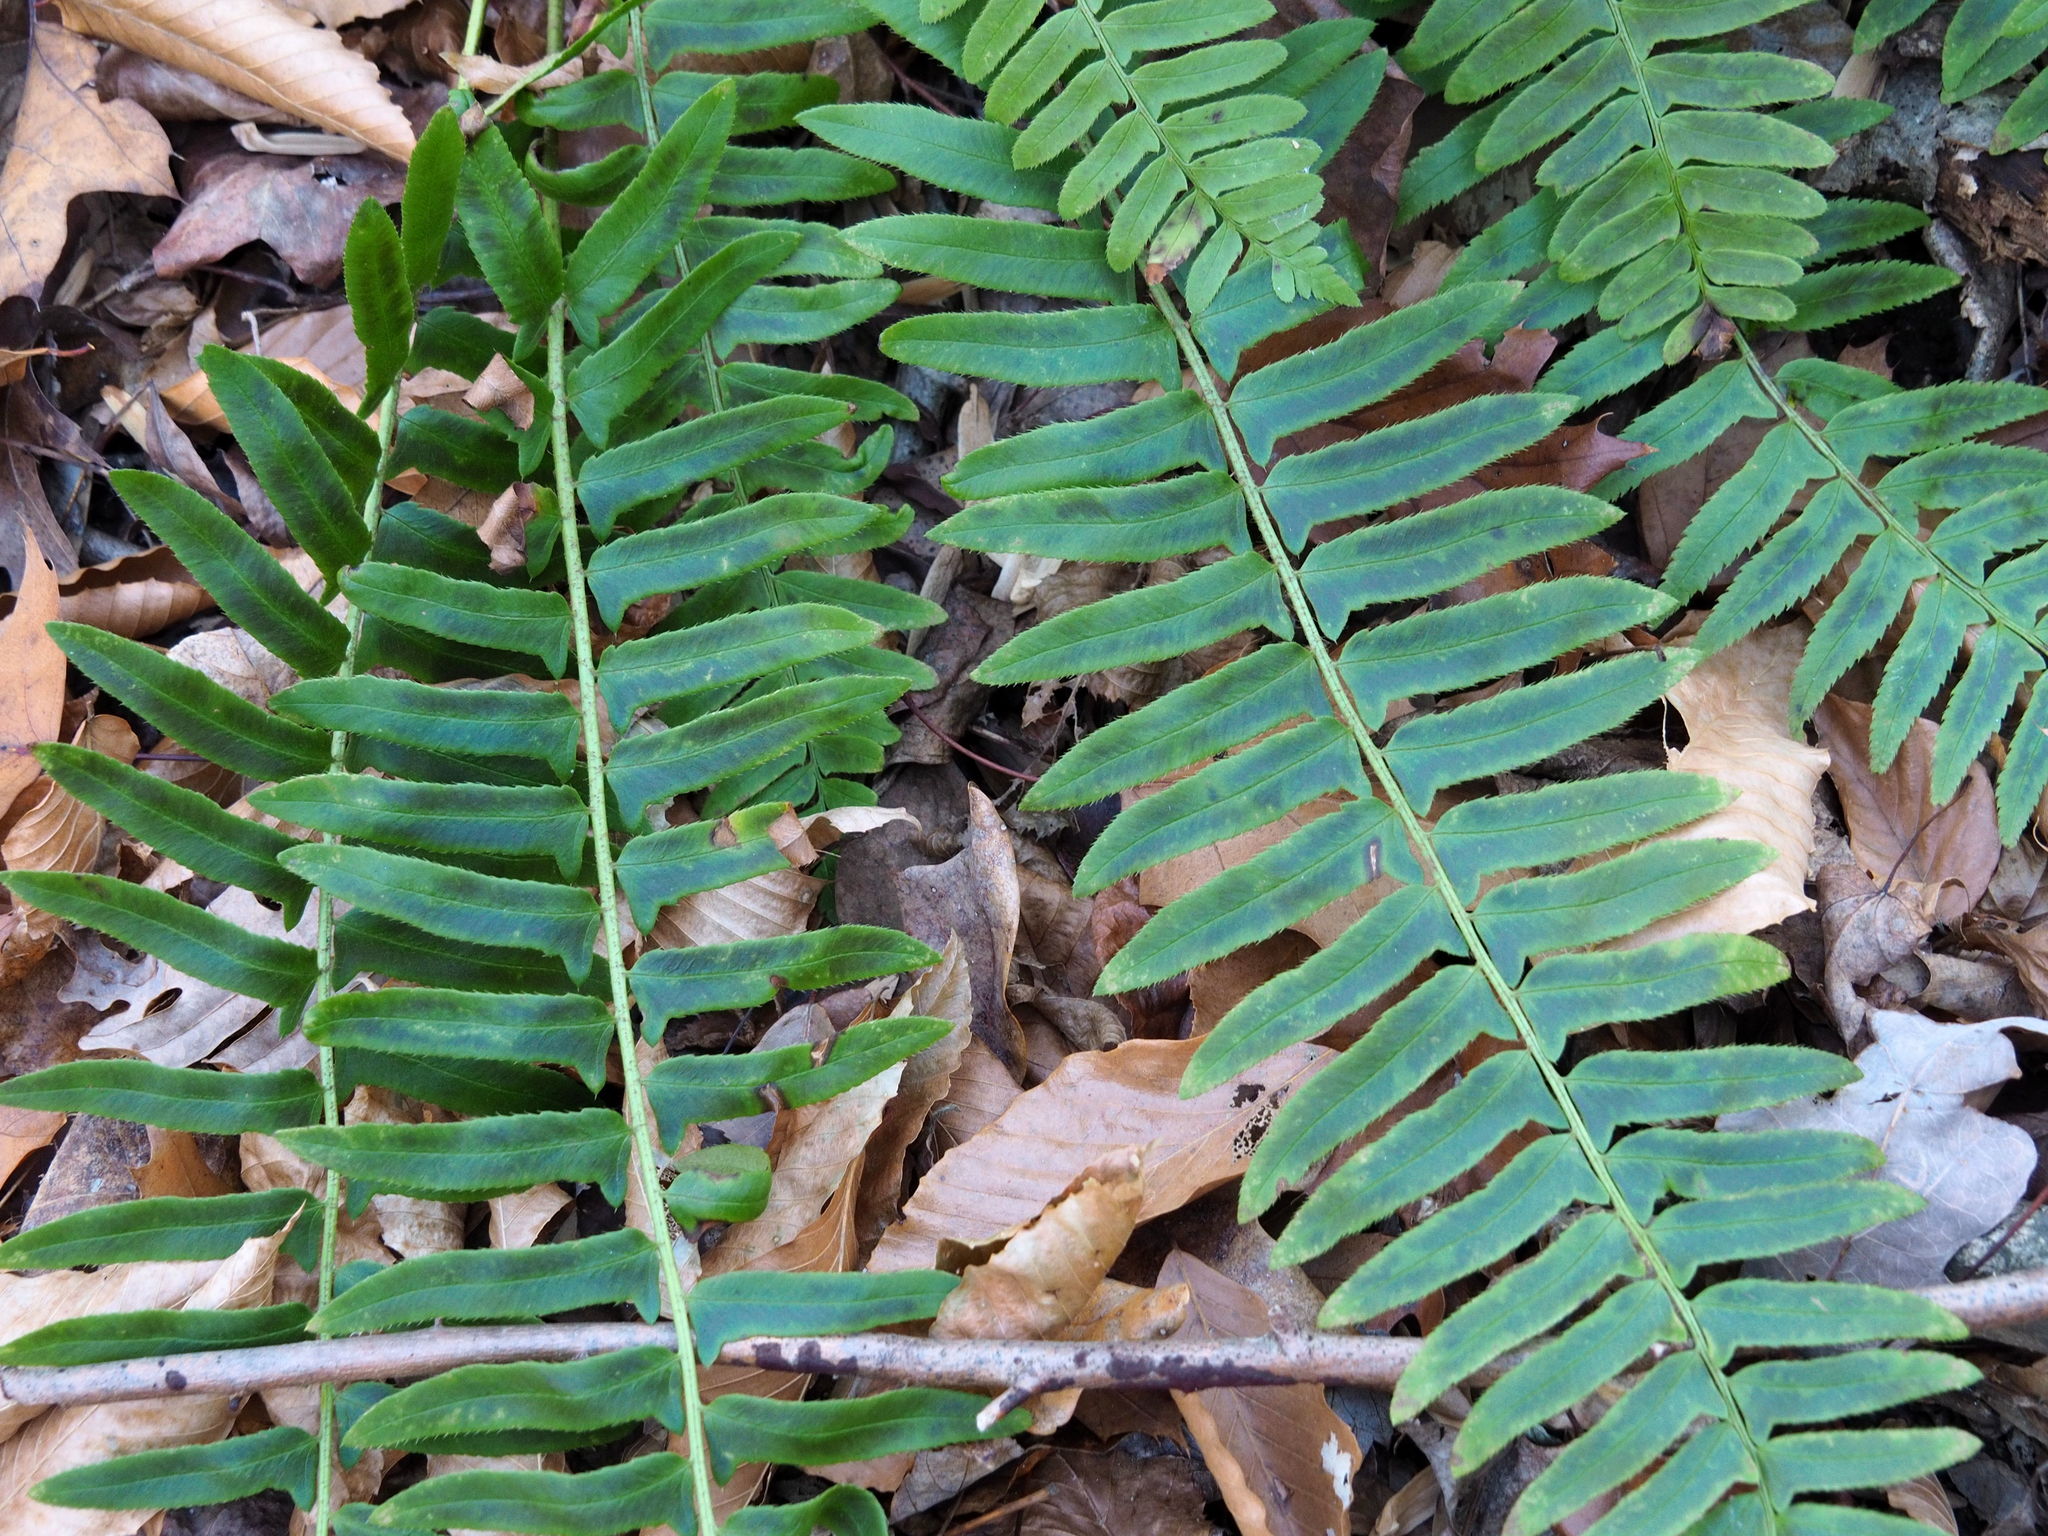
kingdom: Plantae
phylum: Tracheophyta
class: Polypodiopsida
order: Polypodiales
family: Dryopteridaceae
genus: Polystichum
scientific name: Polystichum acrostichoides
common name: Christmas fern
